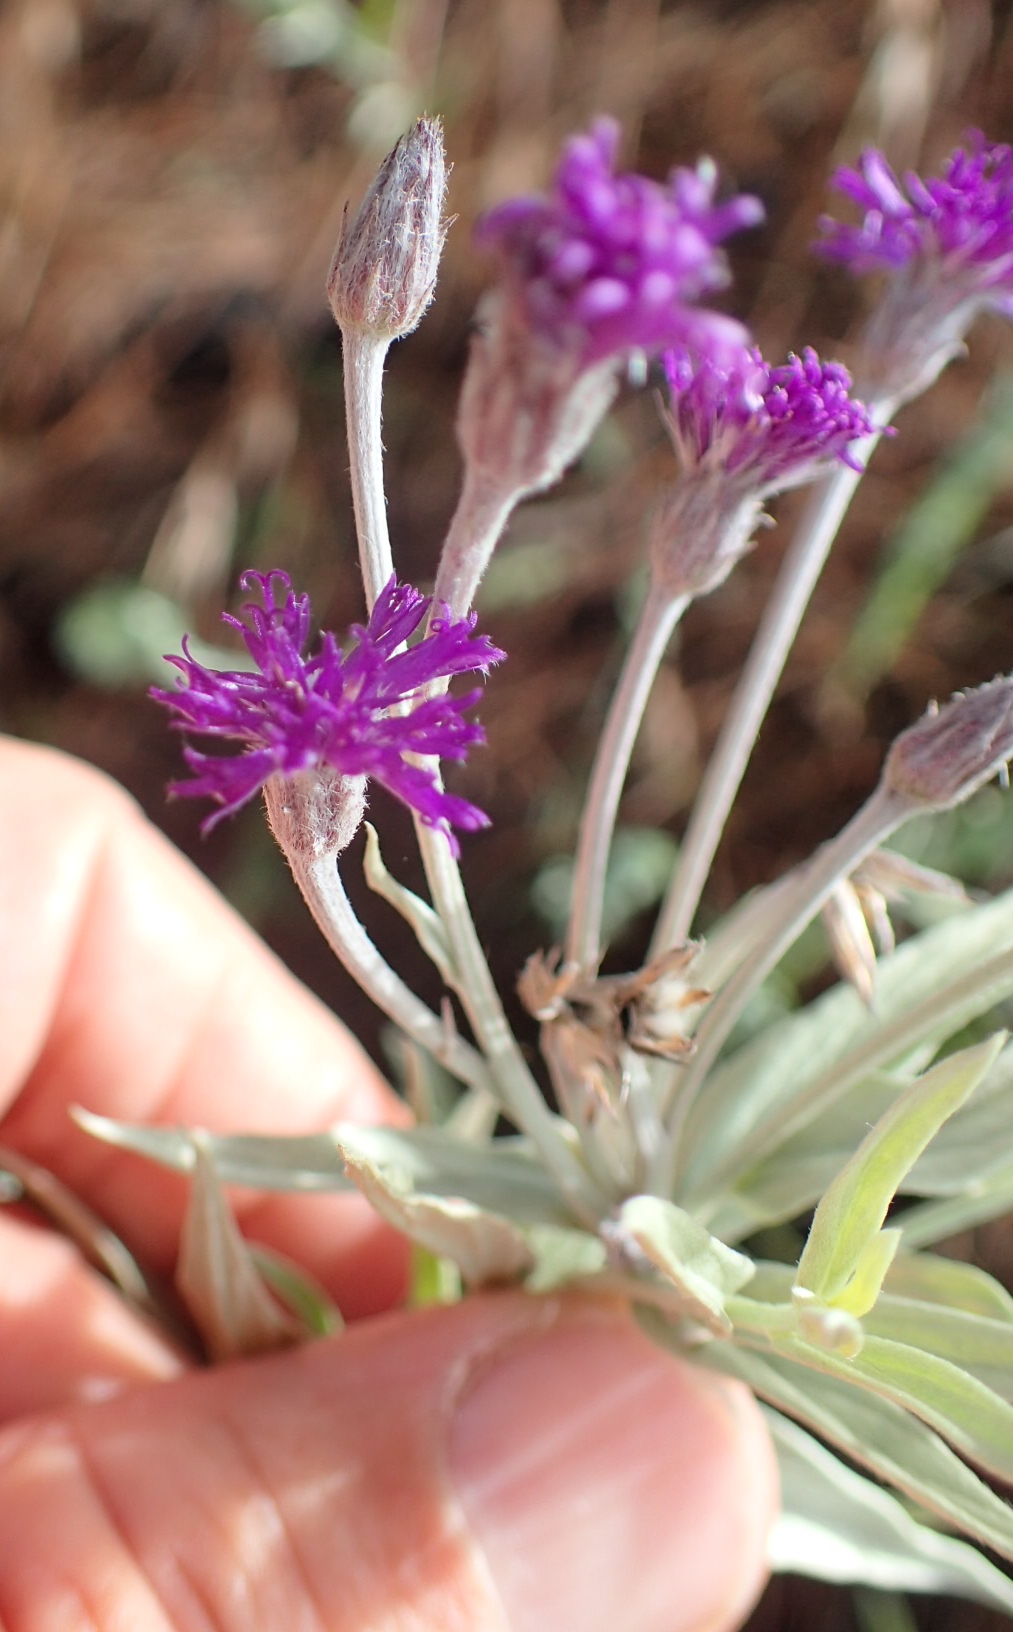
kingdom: Plantae
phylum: Tracheophyta
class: Magnoliopsida
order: Asterales
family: Asteraceae
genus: Hilliardiella
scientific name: Hilliardiella aristata
